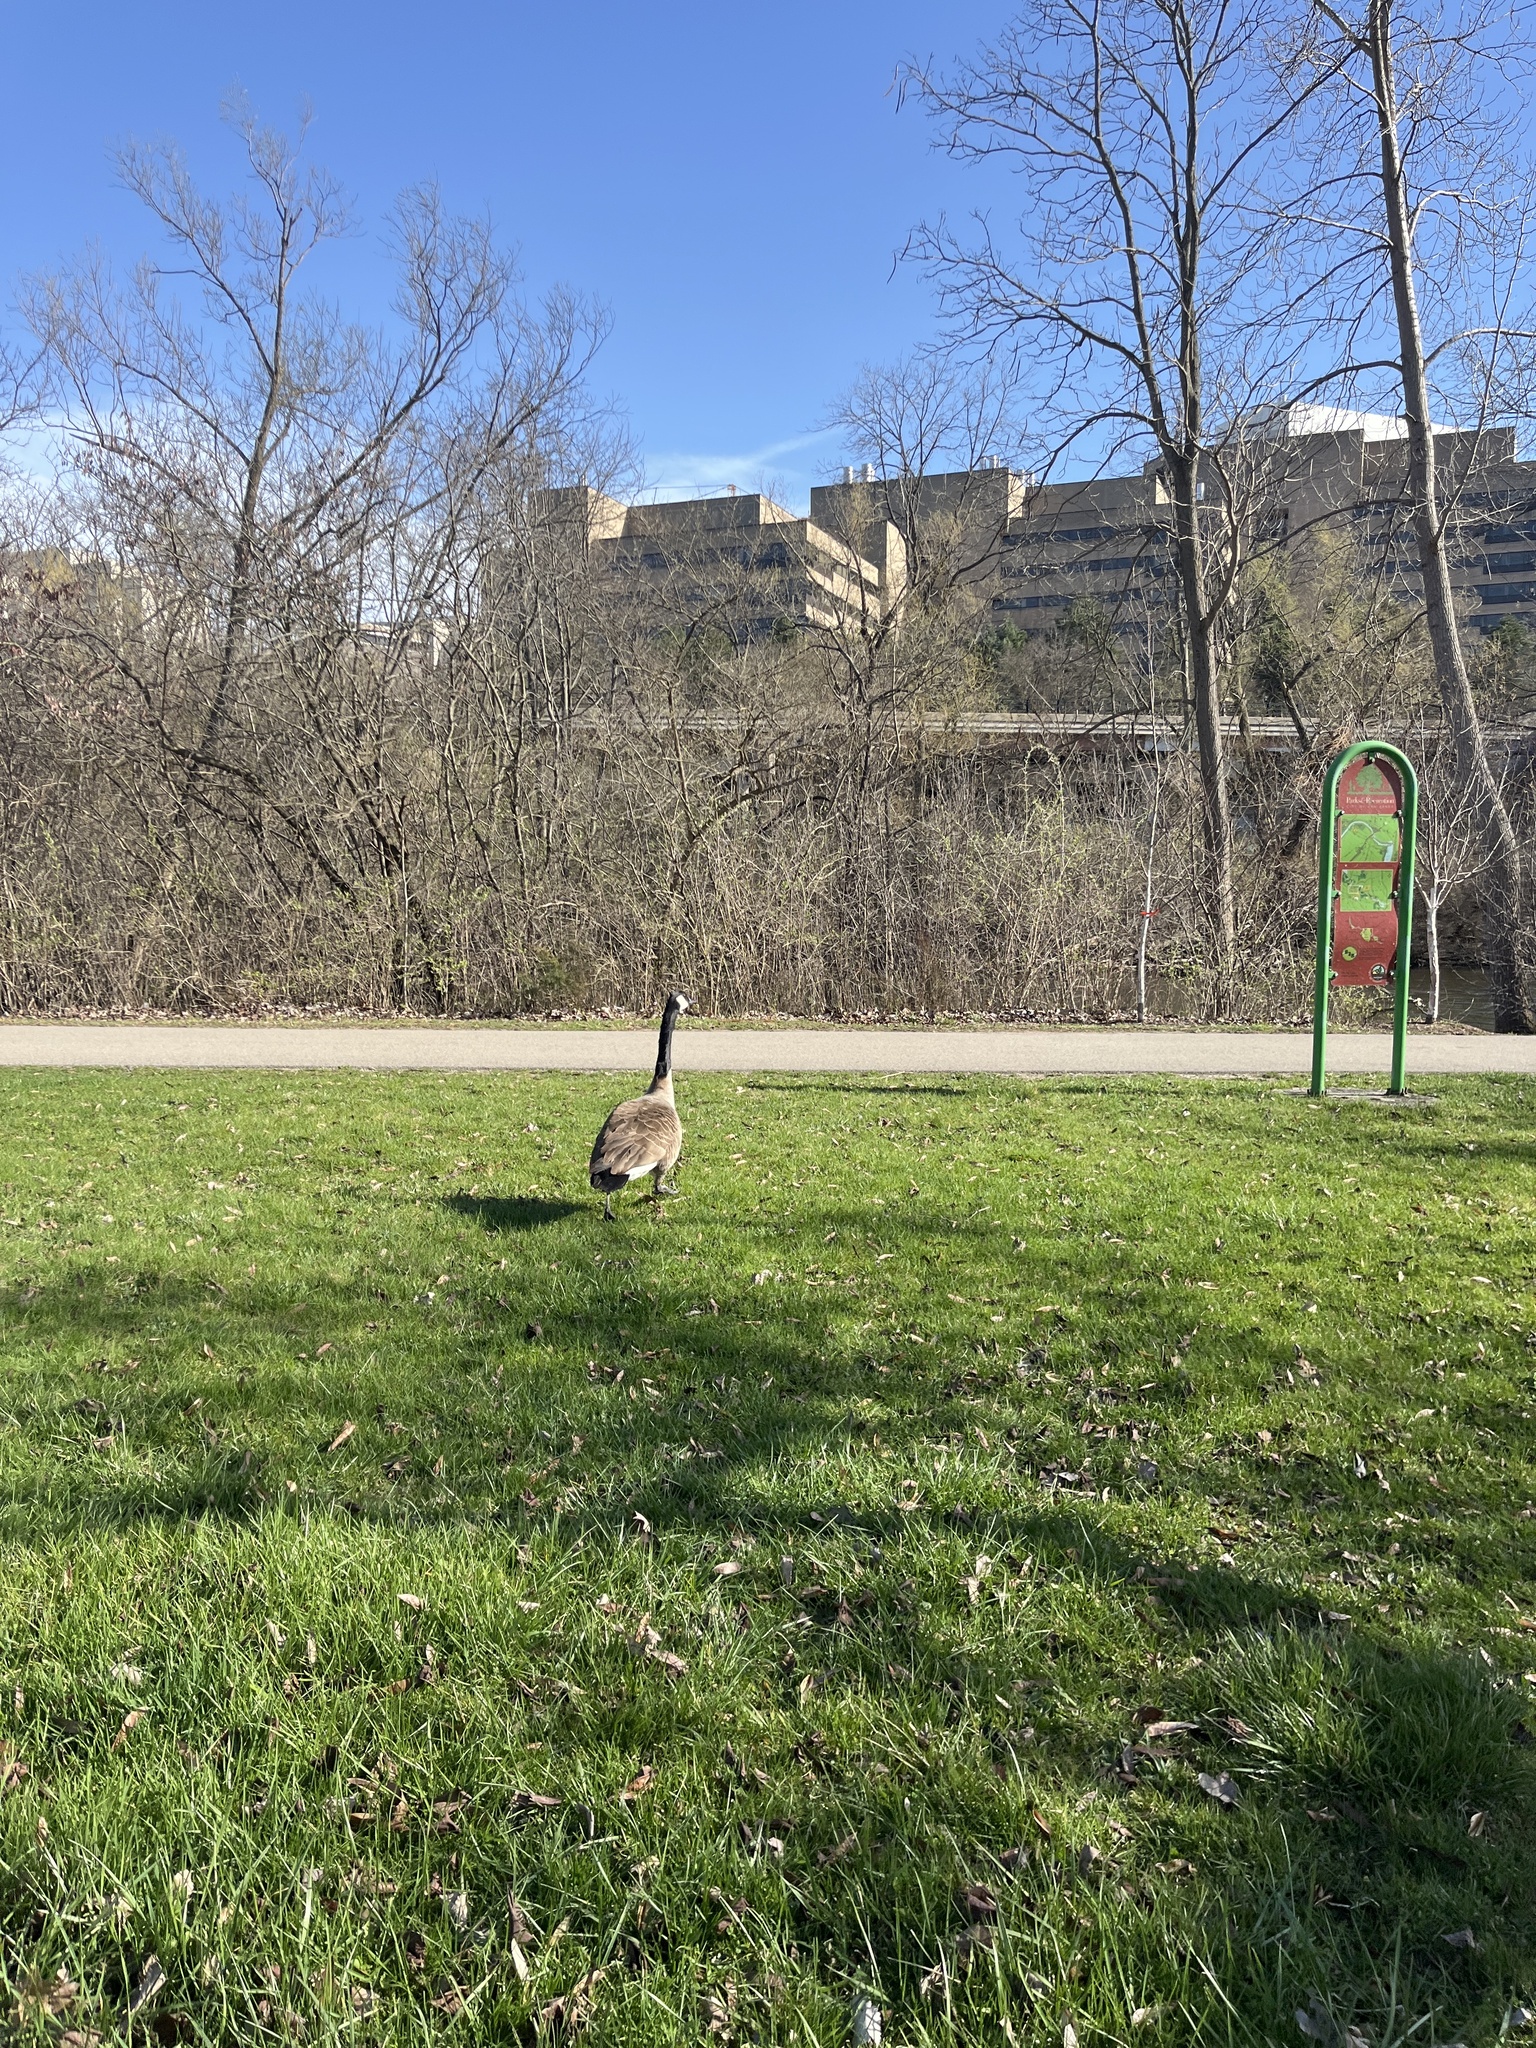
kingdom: Animalia
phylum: Chordata
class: Aves
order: Anseriformes
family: Anatidae
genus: Branta
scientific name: Branta canadensis
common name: Canada goose
